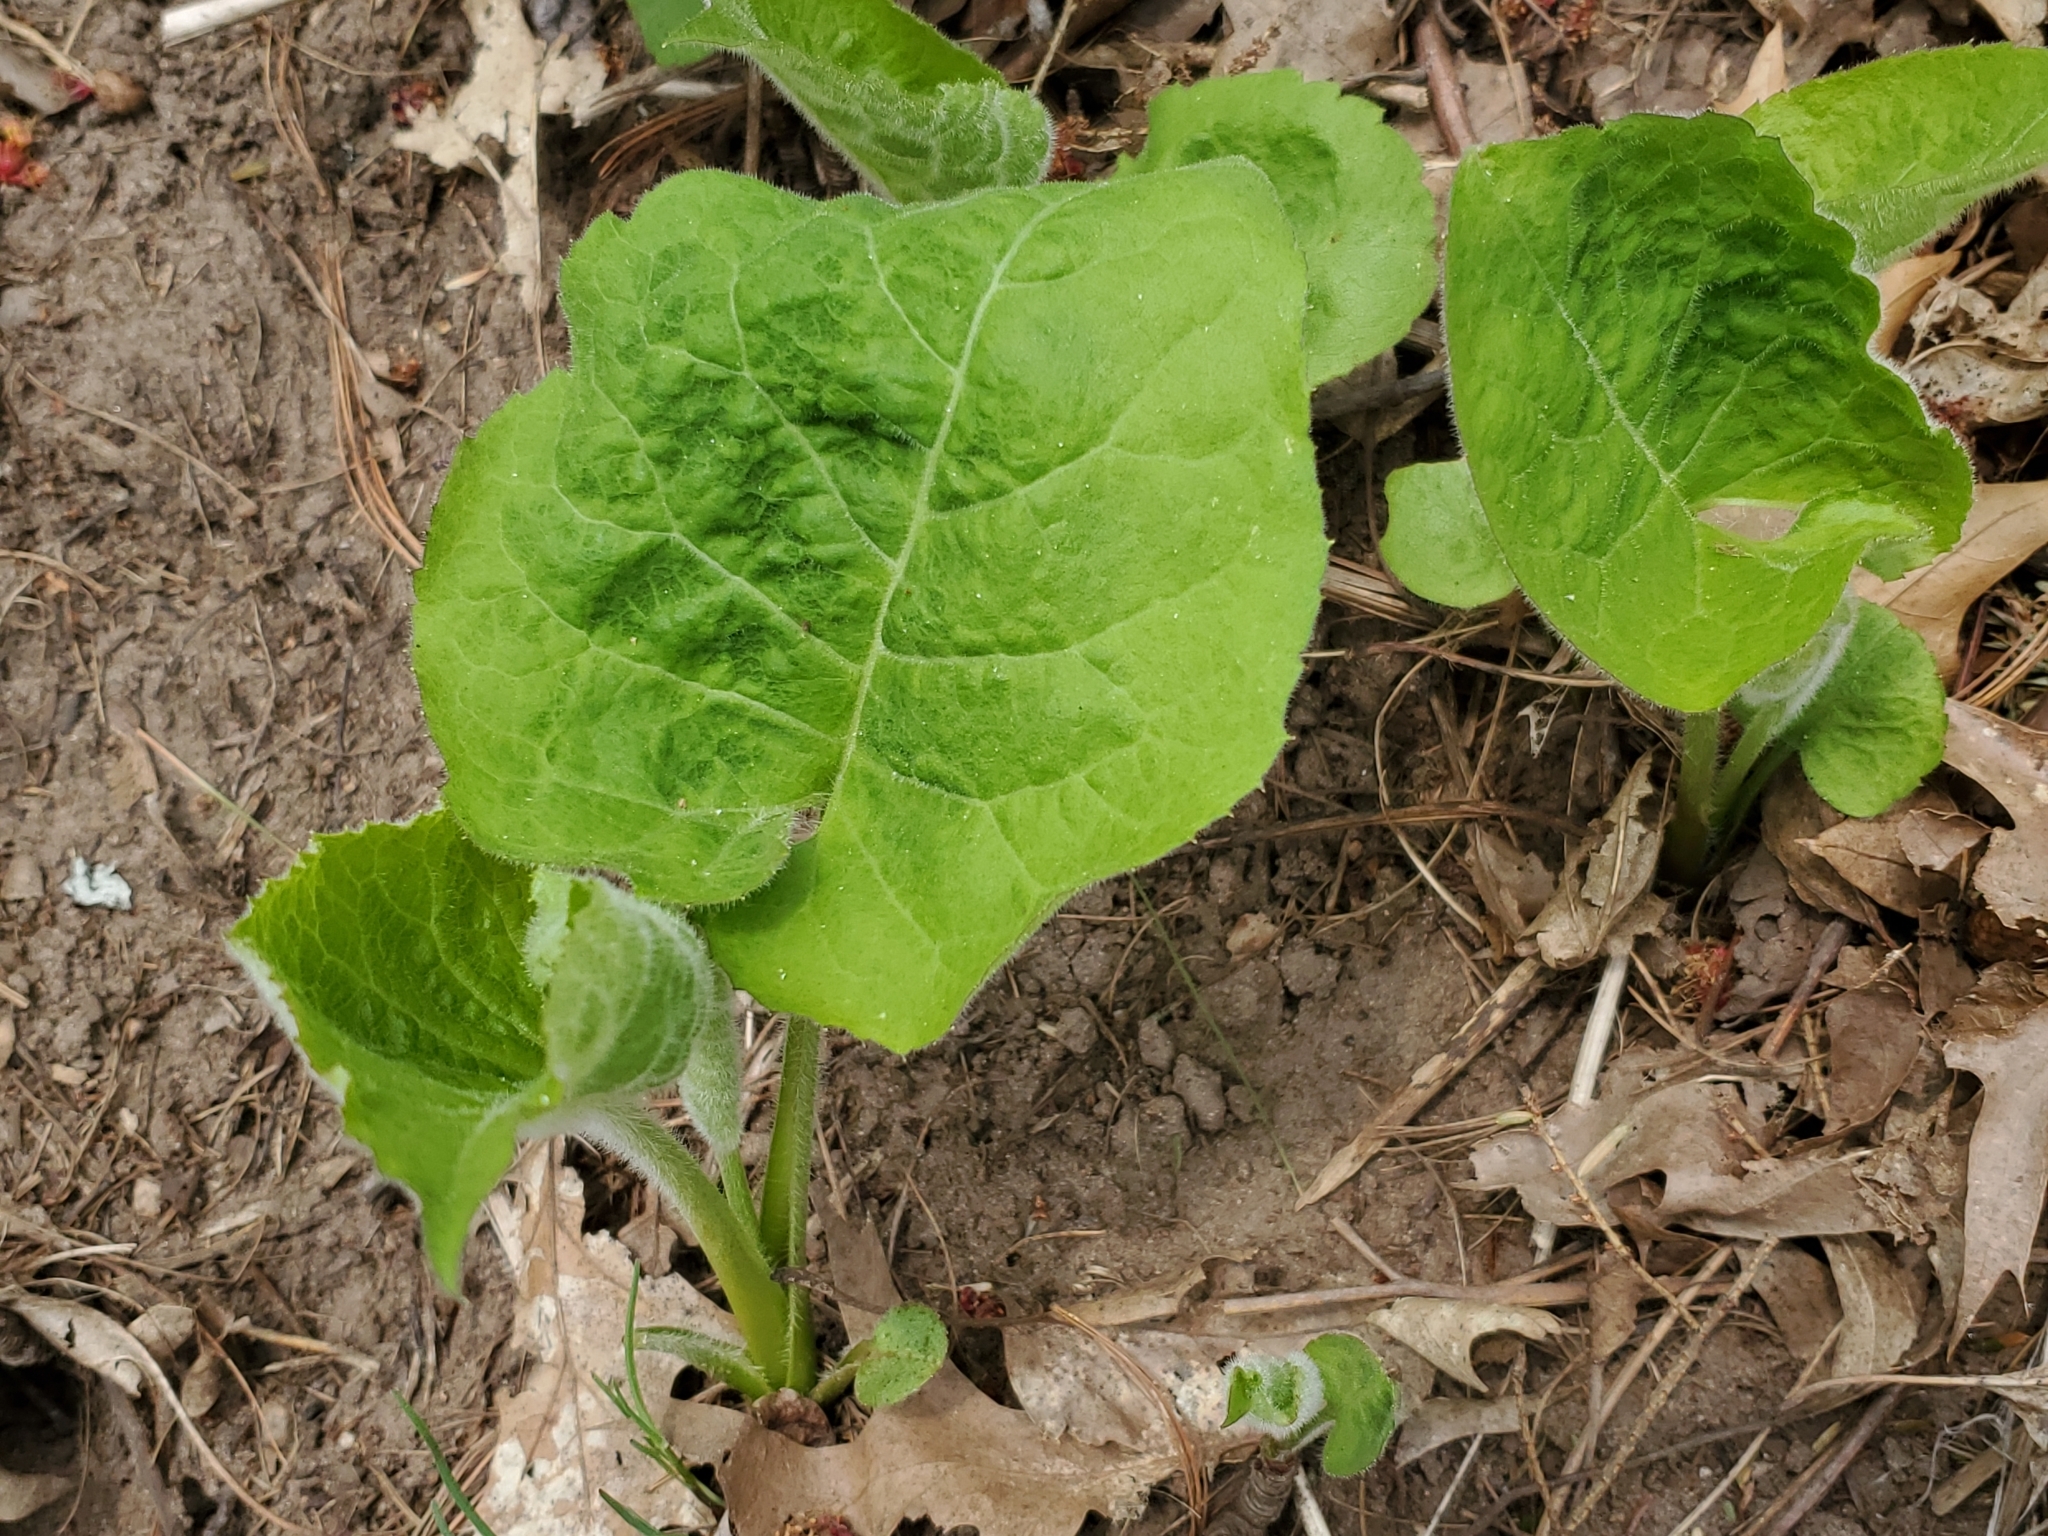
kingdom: Plantae
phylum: Tracheophyta
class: Magnoliopsida
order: Asterales
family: Asteraceae
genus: Eurybia
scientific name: Eurybia macrophylla
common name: Big-leaved aster
